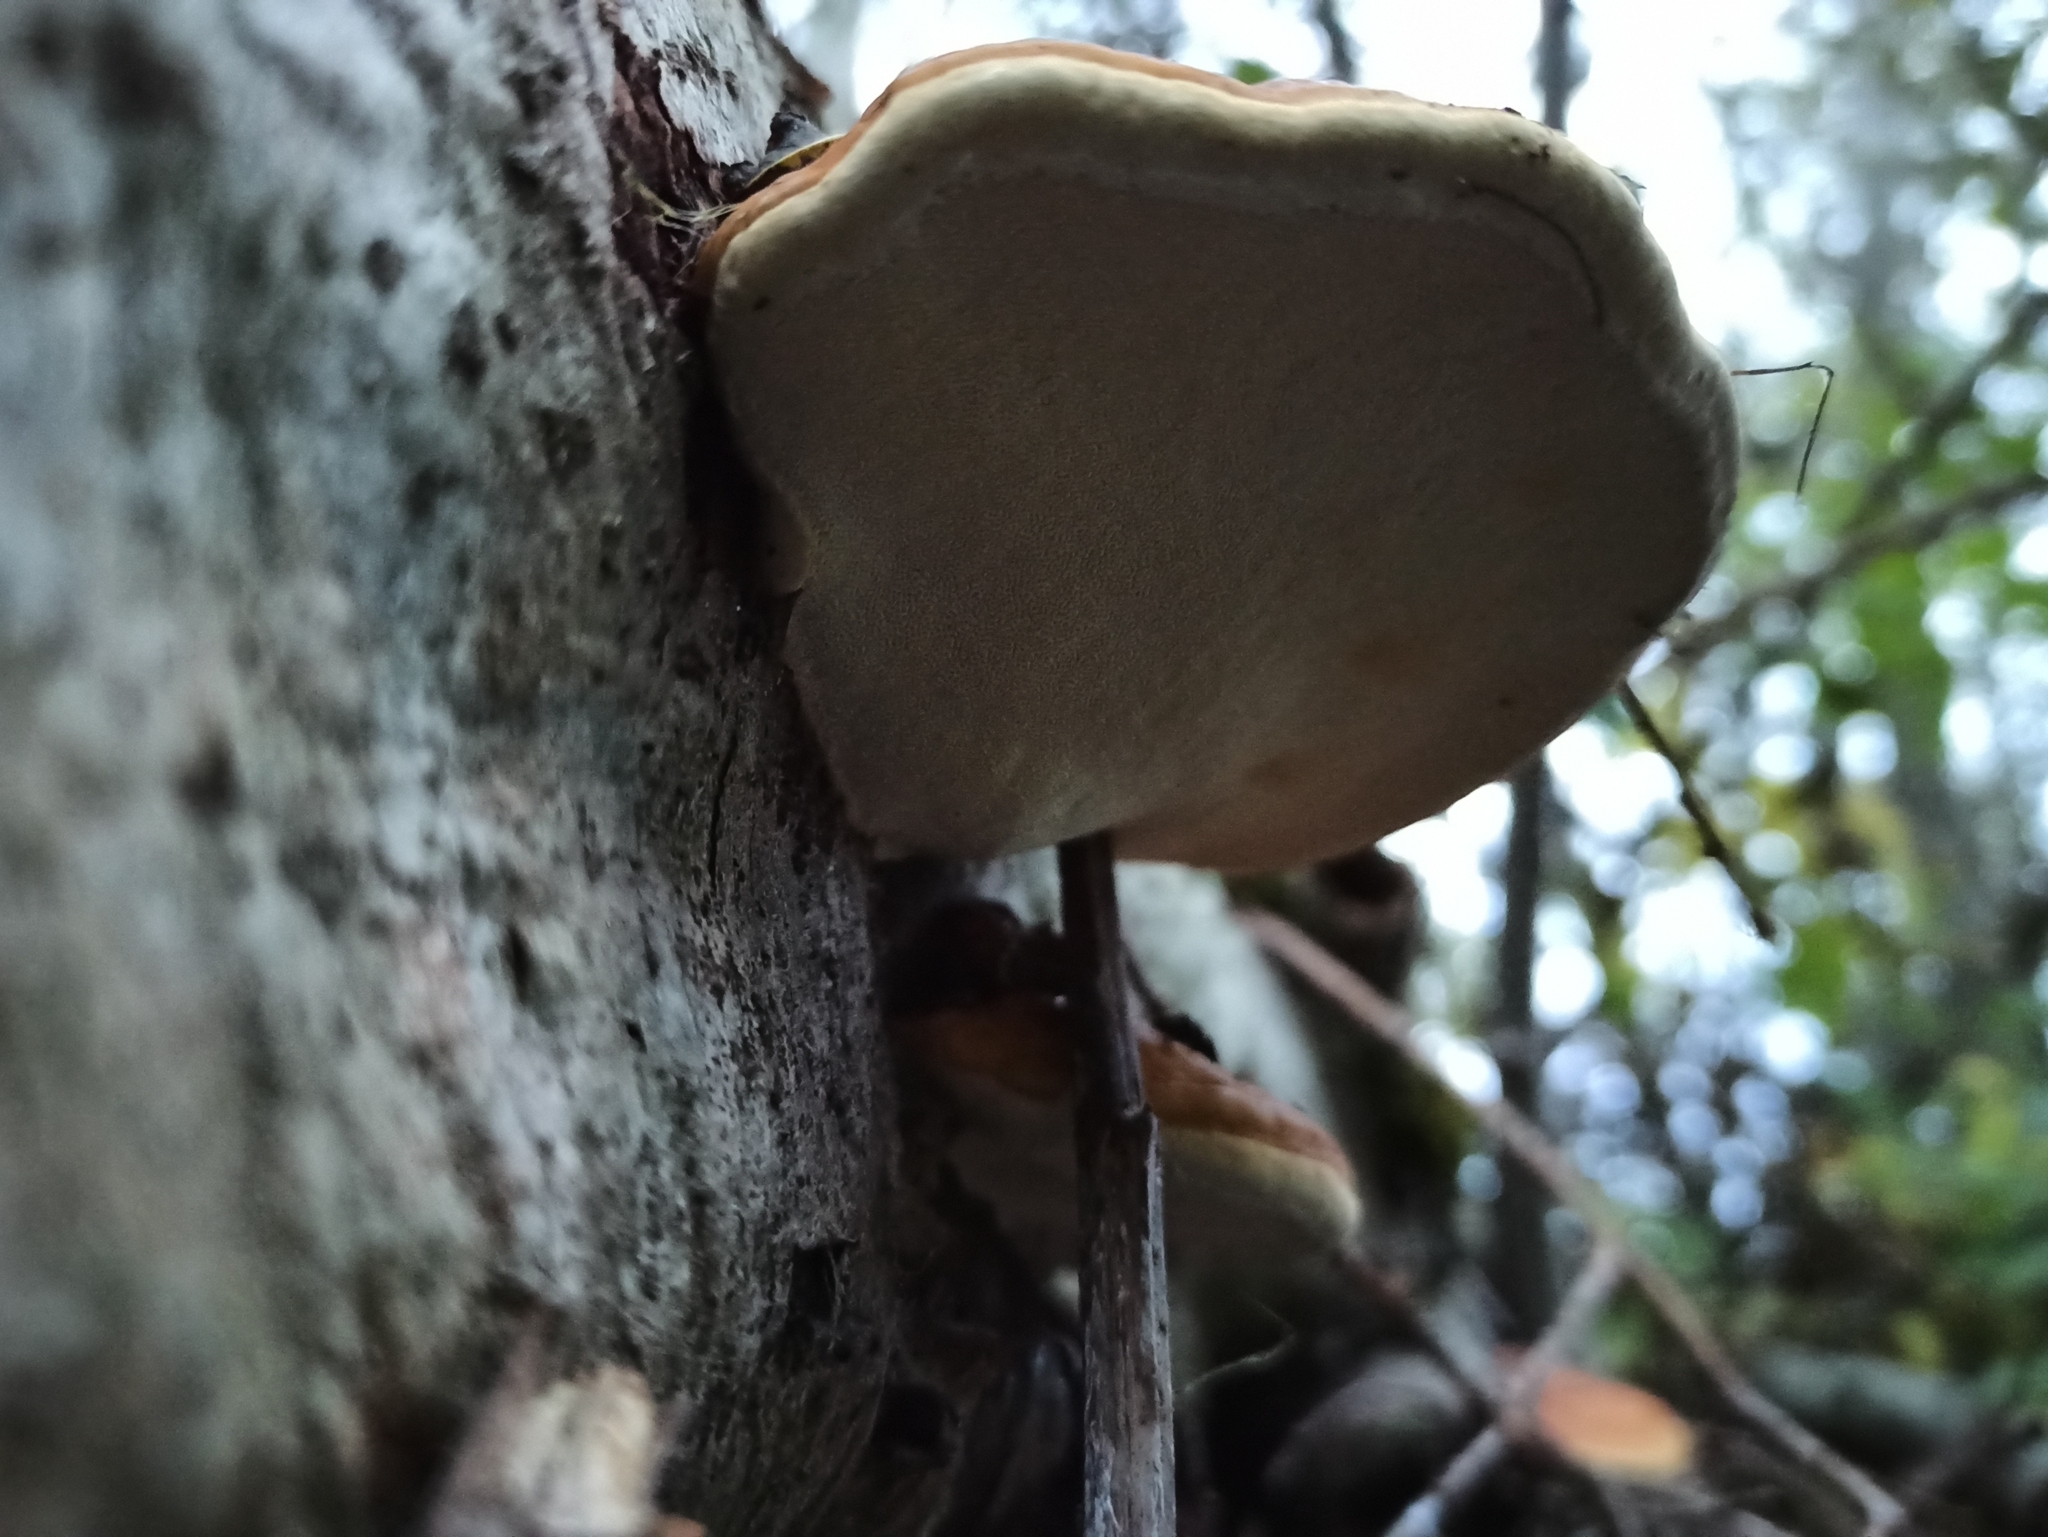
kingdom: Fungi
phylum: Basidiomycota
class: Agaricomycetes
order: Polyporales
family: Fomitopsidaceae
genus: Fomitopsis
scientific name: Fomitopsis pinicola
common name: Red-belted bracket
